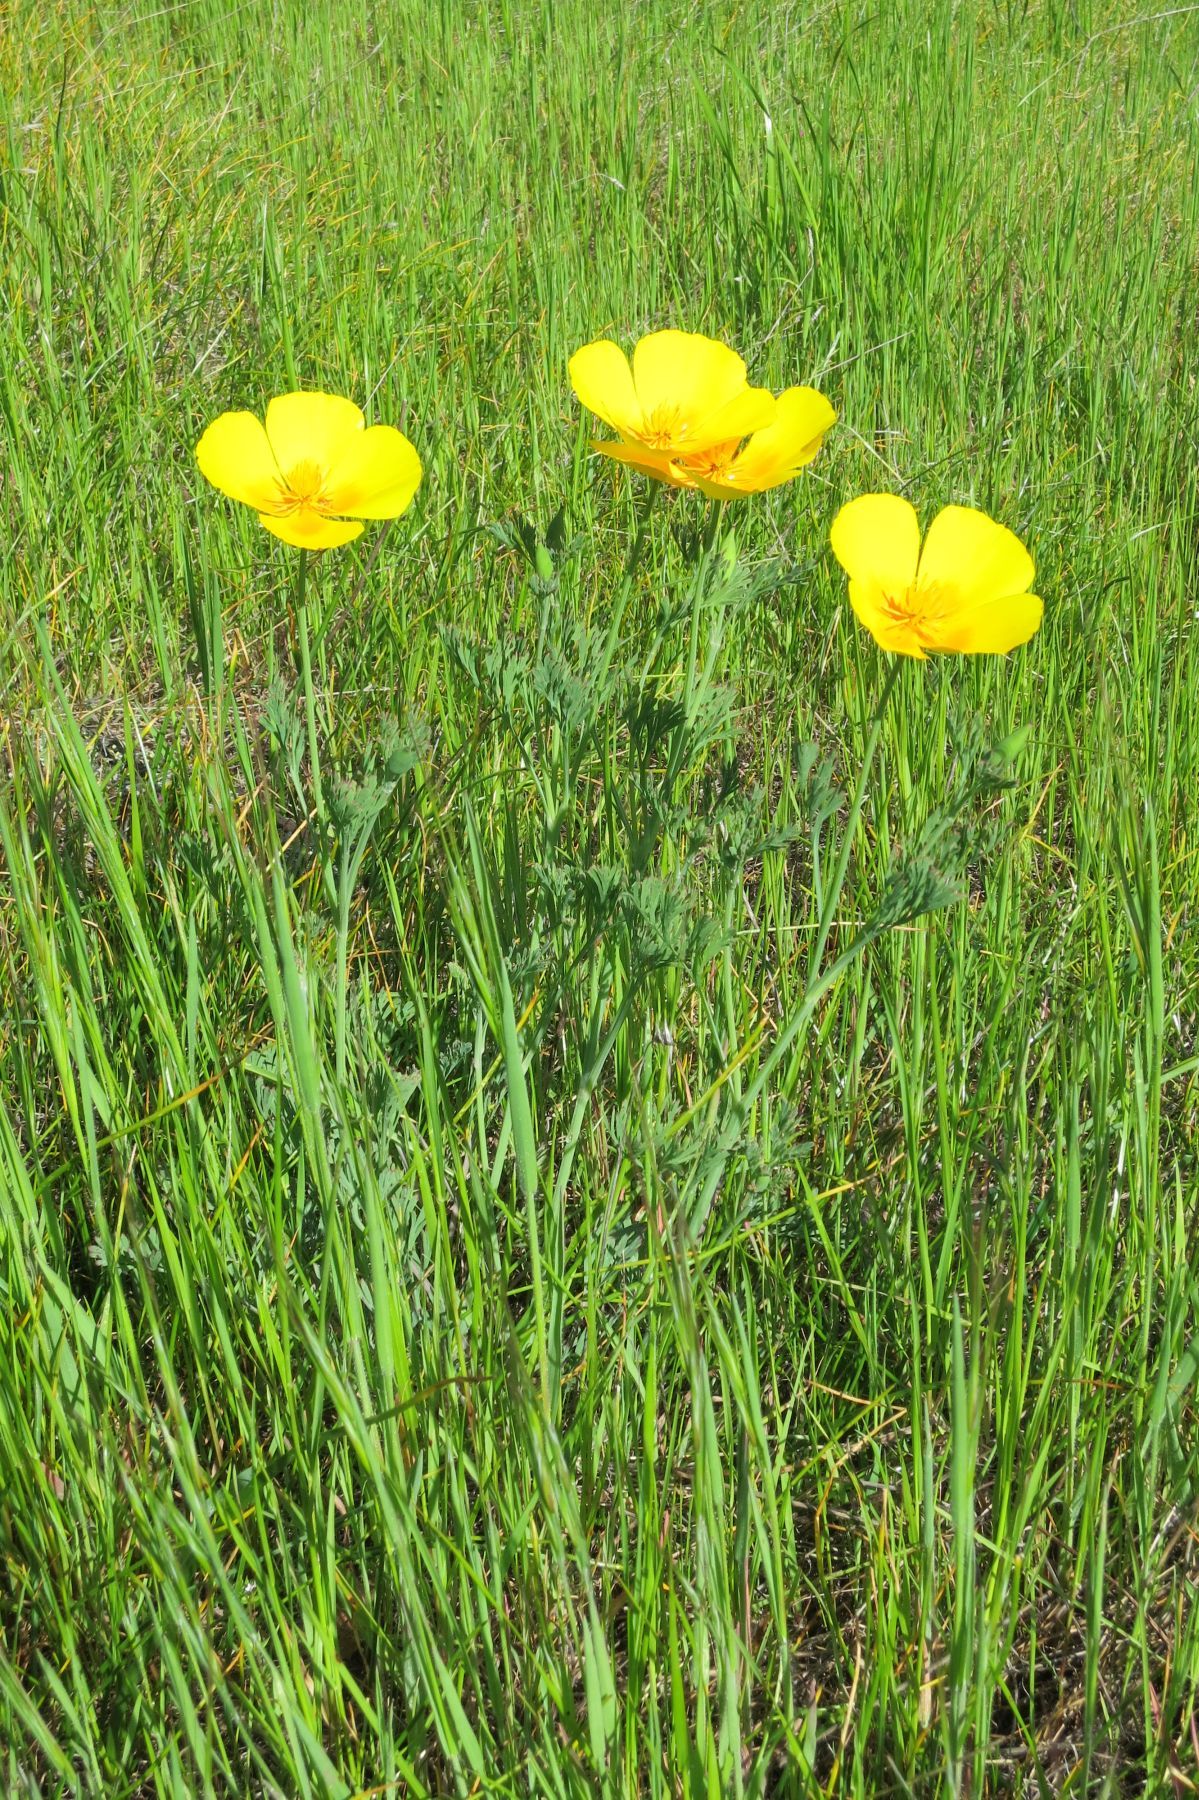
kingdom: Plantae
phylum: Tracheophyta
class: Magnoliopsida
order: Ranunculales
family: Papaveraceae
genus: Eschscholzia
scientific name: Eschscholzia californica
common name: California poppy
